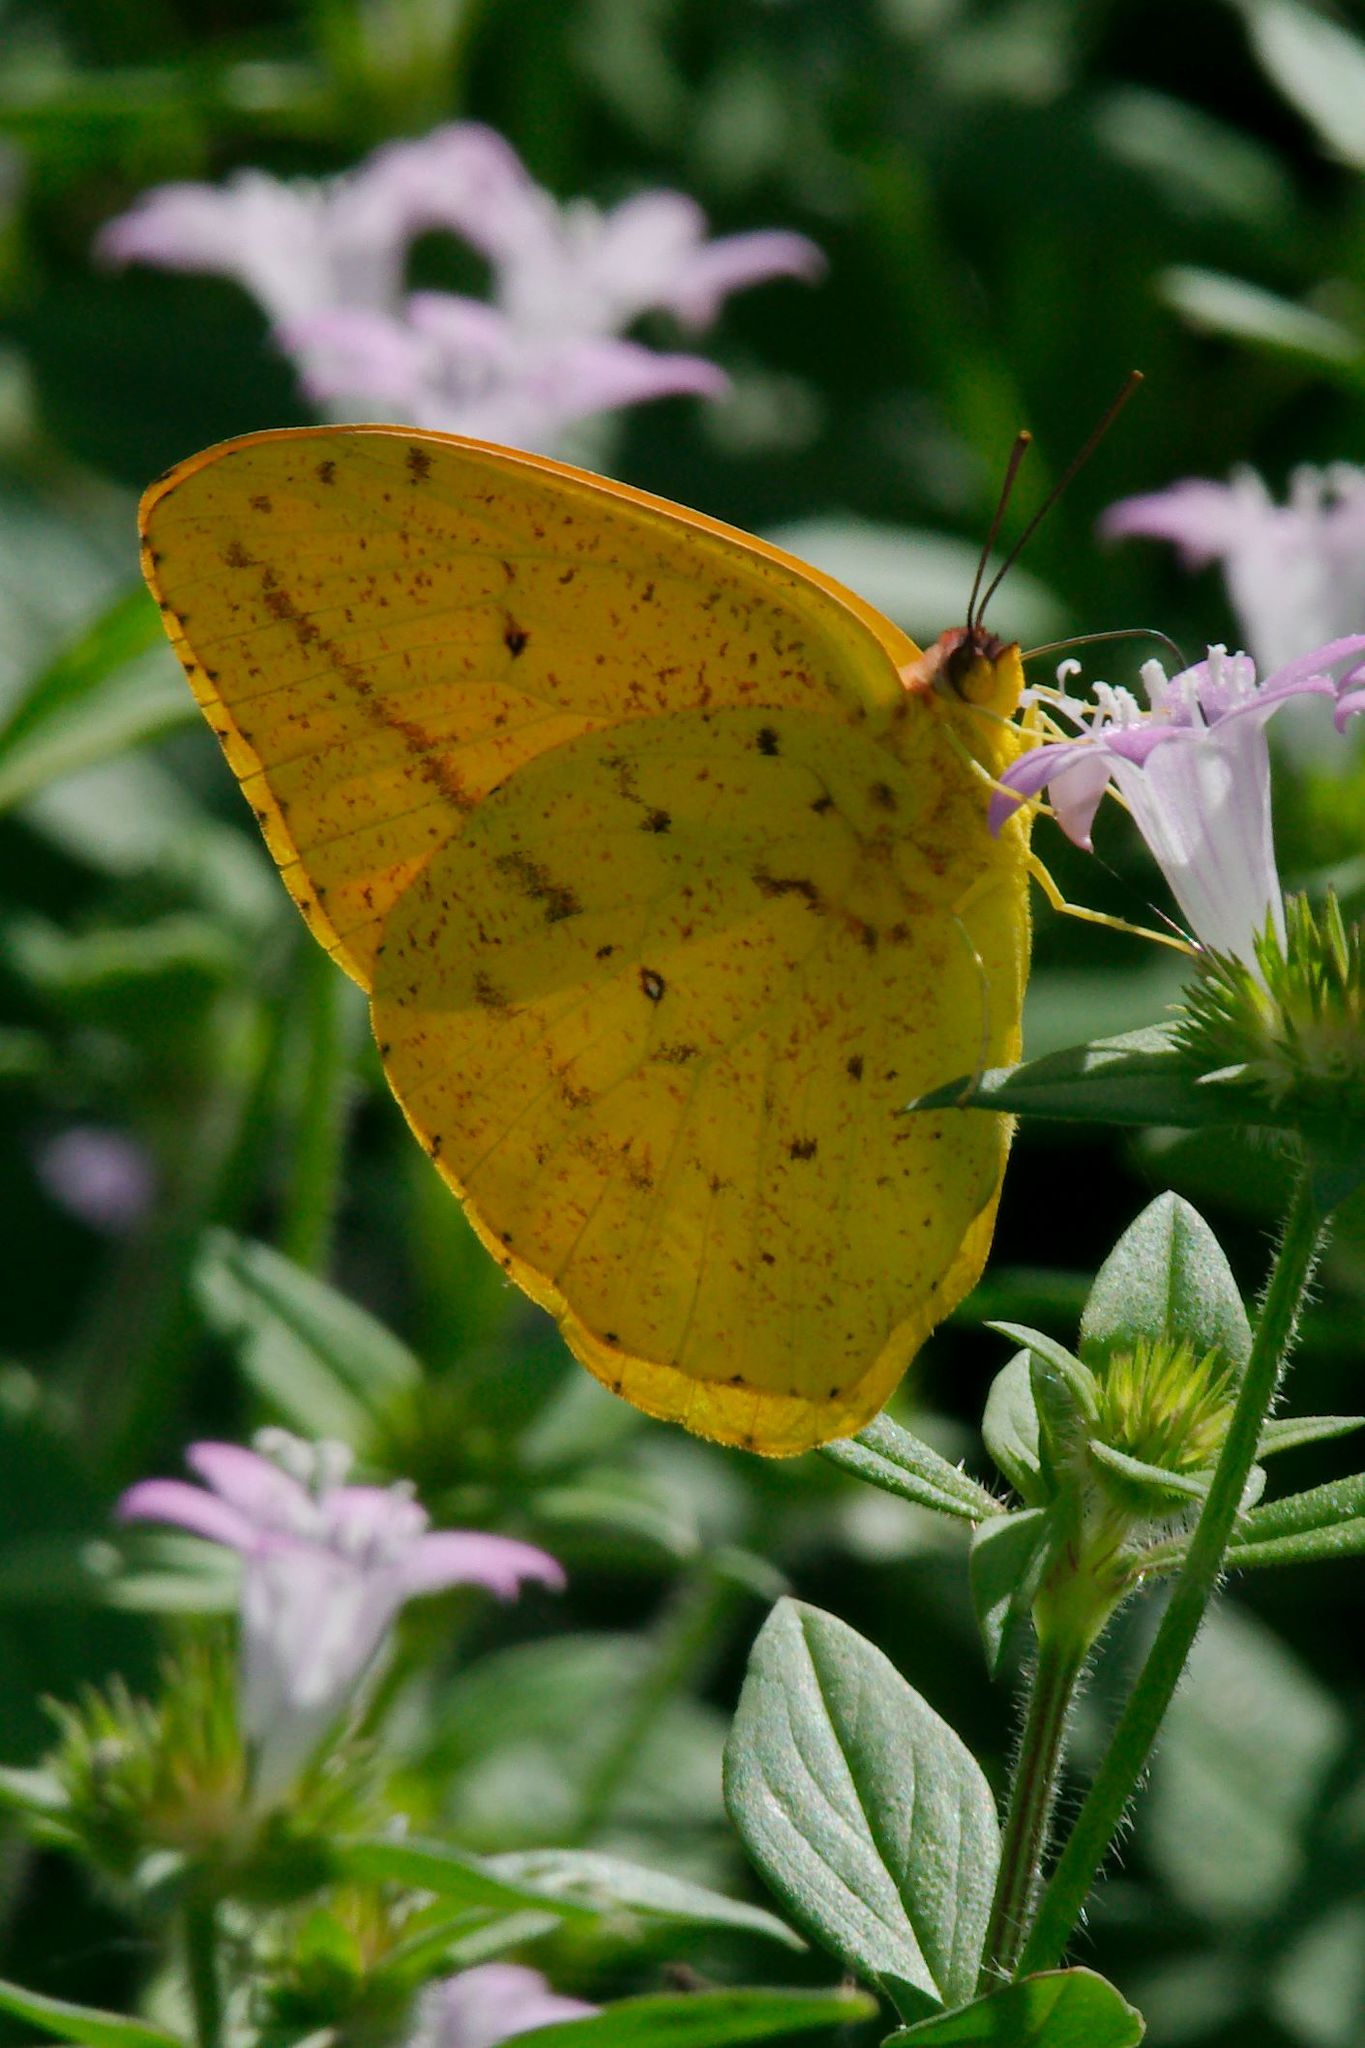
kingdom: Animalia
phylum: Arthropoda
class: Insecta
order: Lepidoptera
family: Pieridae
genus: Phoebis
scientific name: Phoebis agarithe
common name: Large orange sulphur
